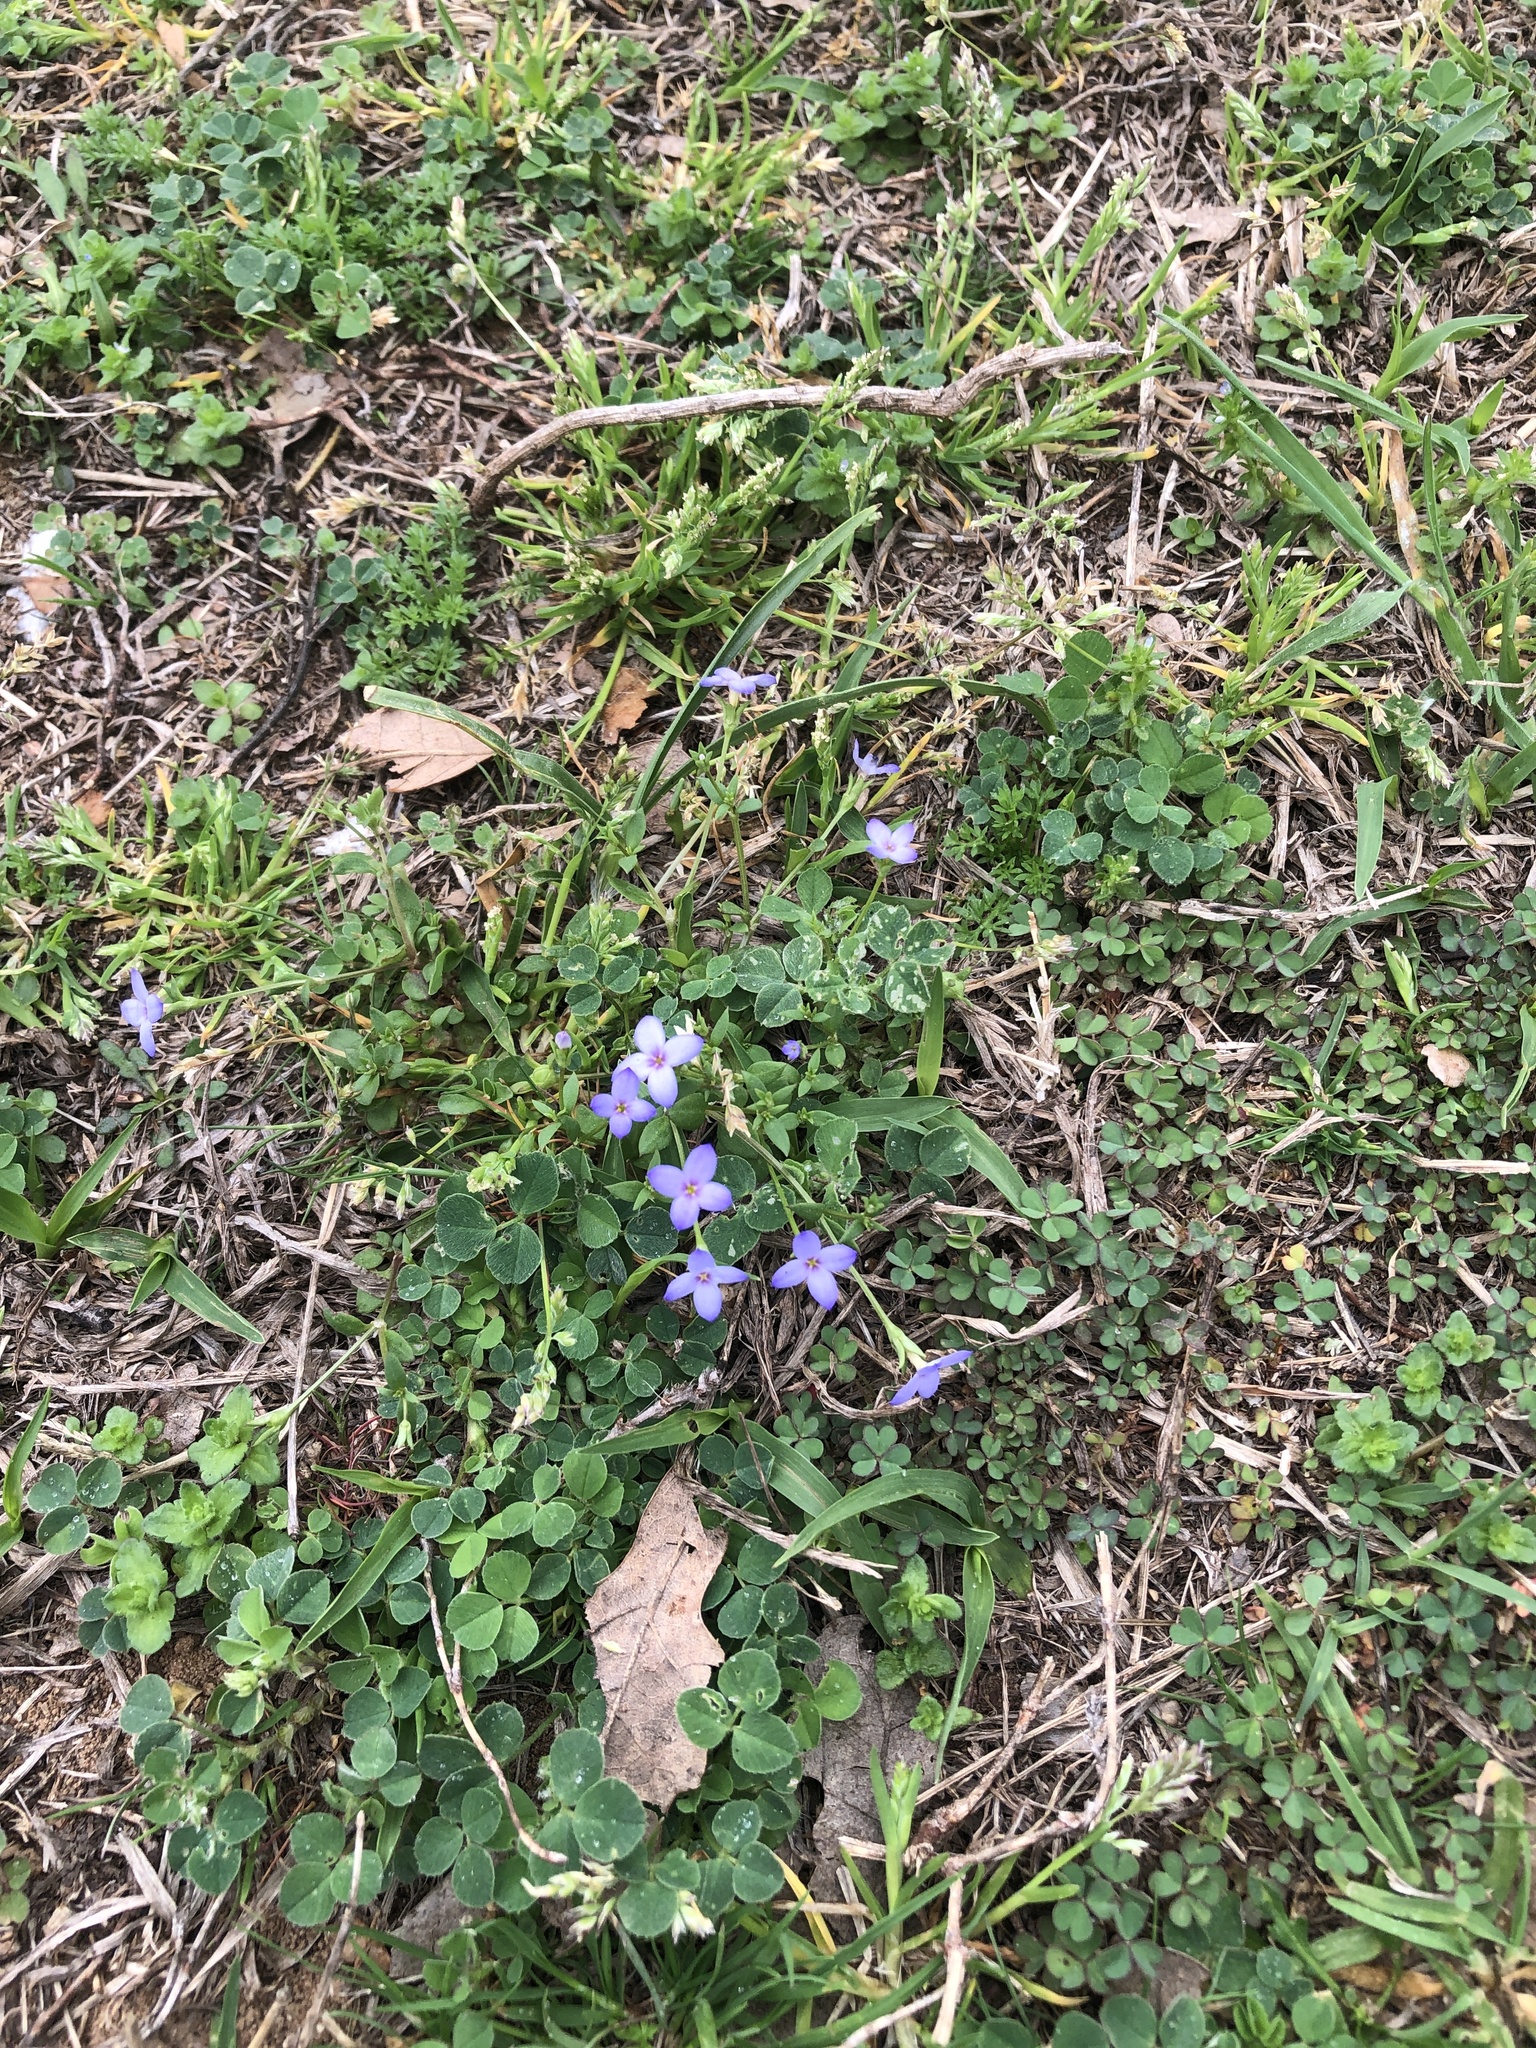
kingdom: Plantae
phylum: Tracheophyta
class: Magnoliopsida
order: Gentianales
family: Rubiaceae
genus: Houstonia
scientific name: Houstonia pusilla
